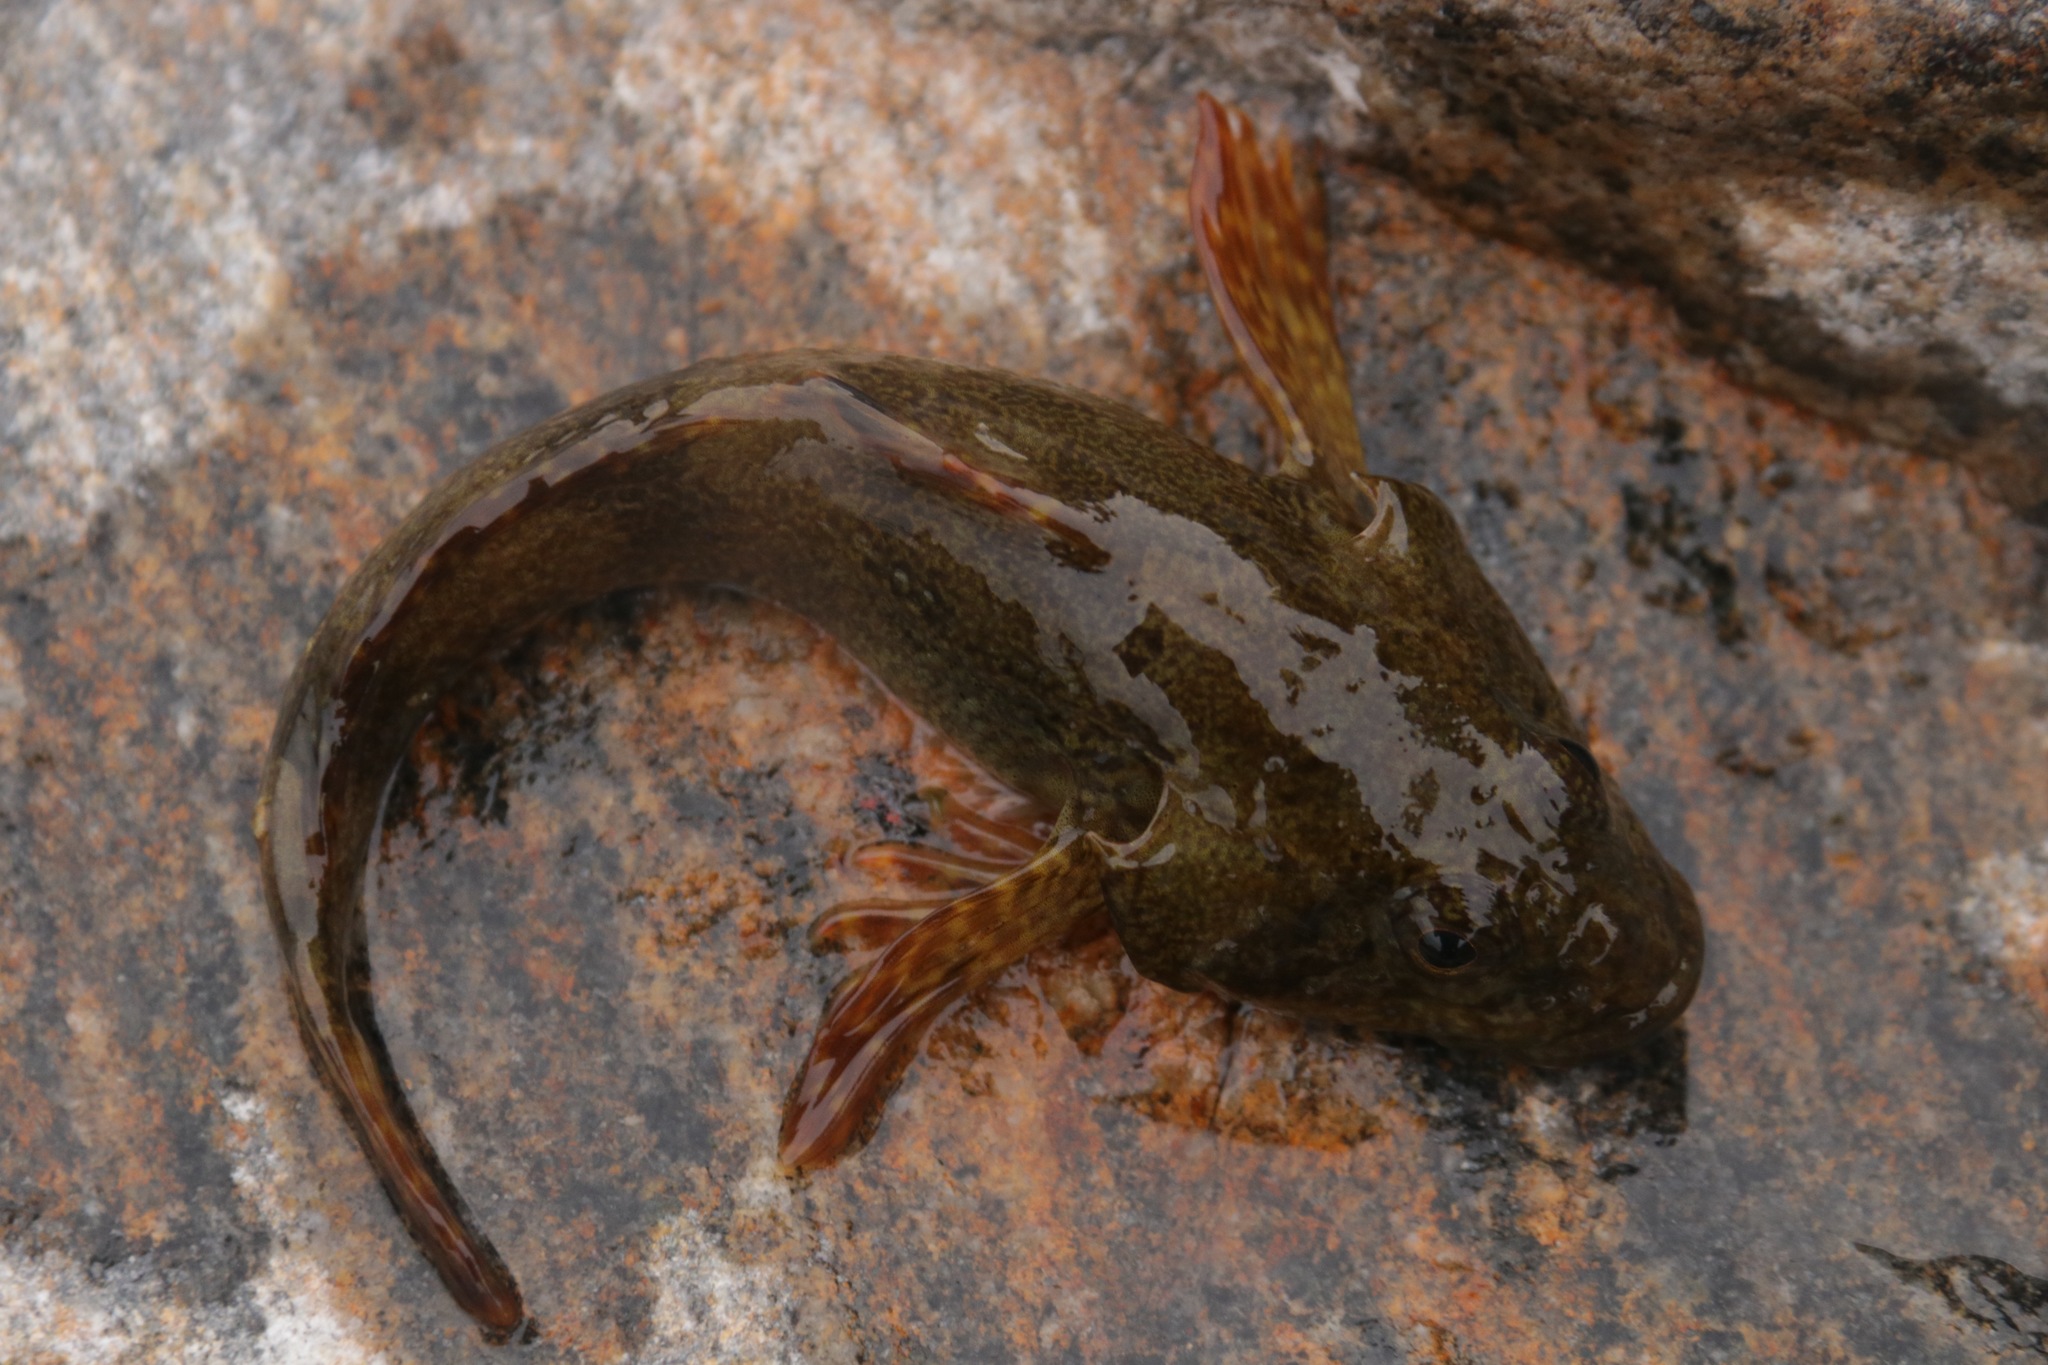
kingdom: Animalia
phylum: Chordata
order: Scorpaeniformes
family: Cottocomephoridae
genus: Paracottus
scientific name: Paracottus knerii
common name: Stone sculpin
